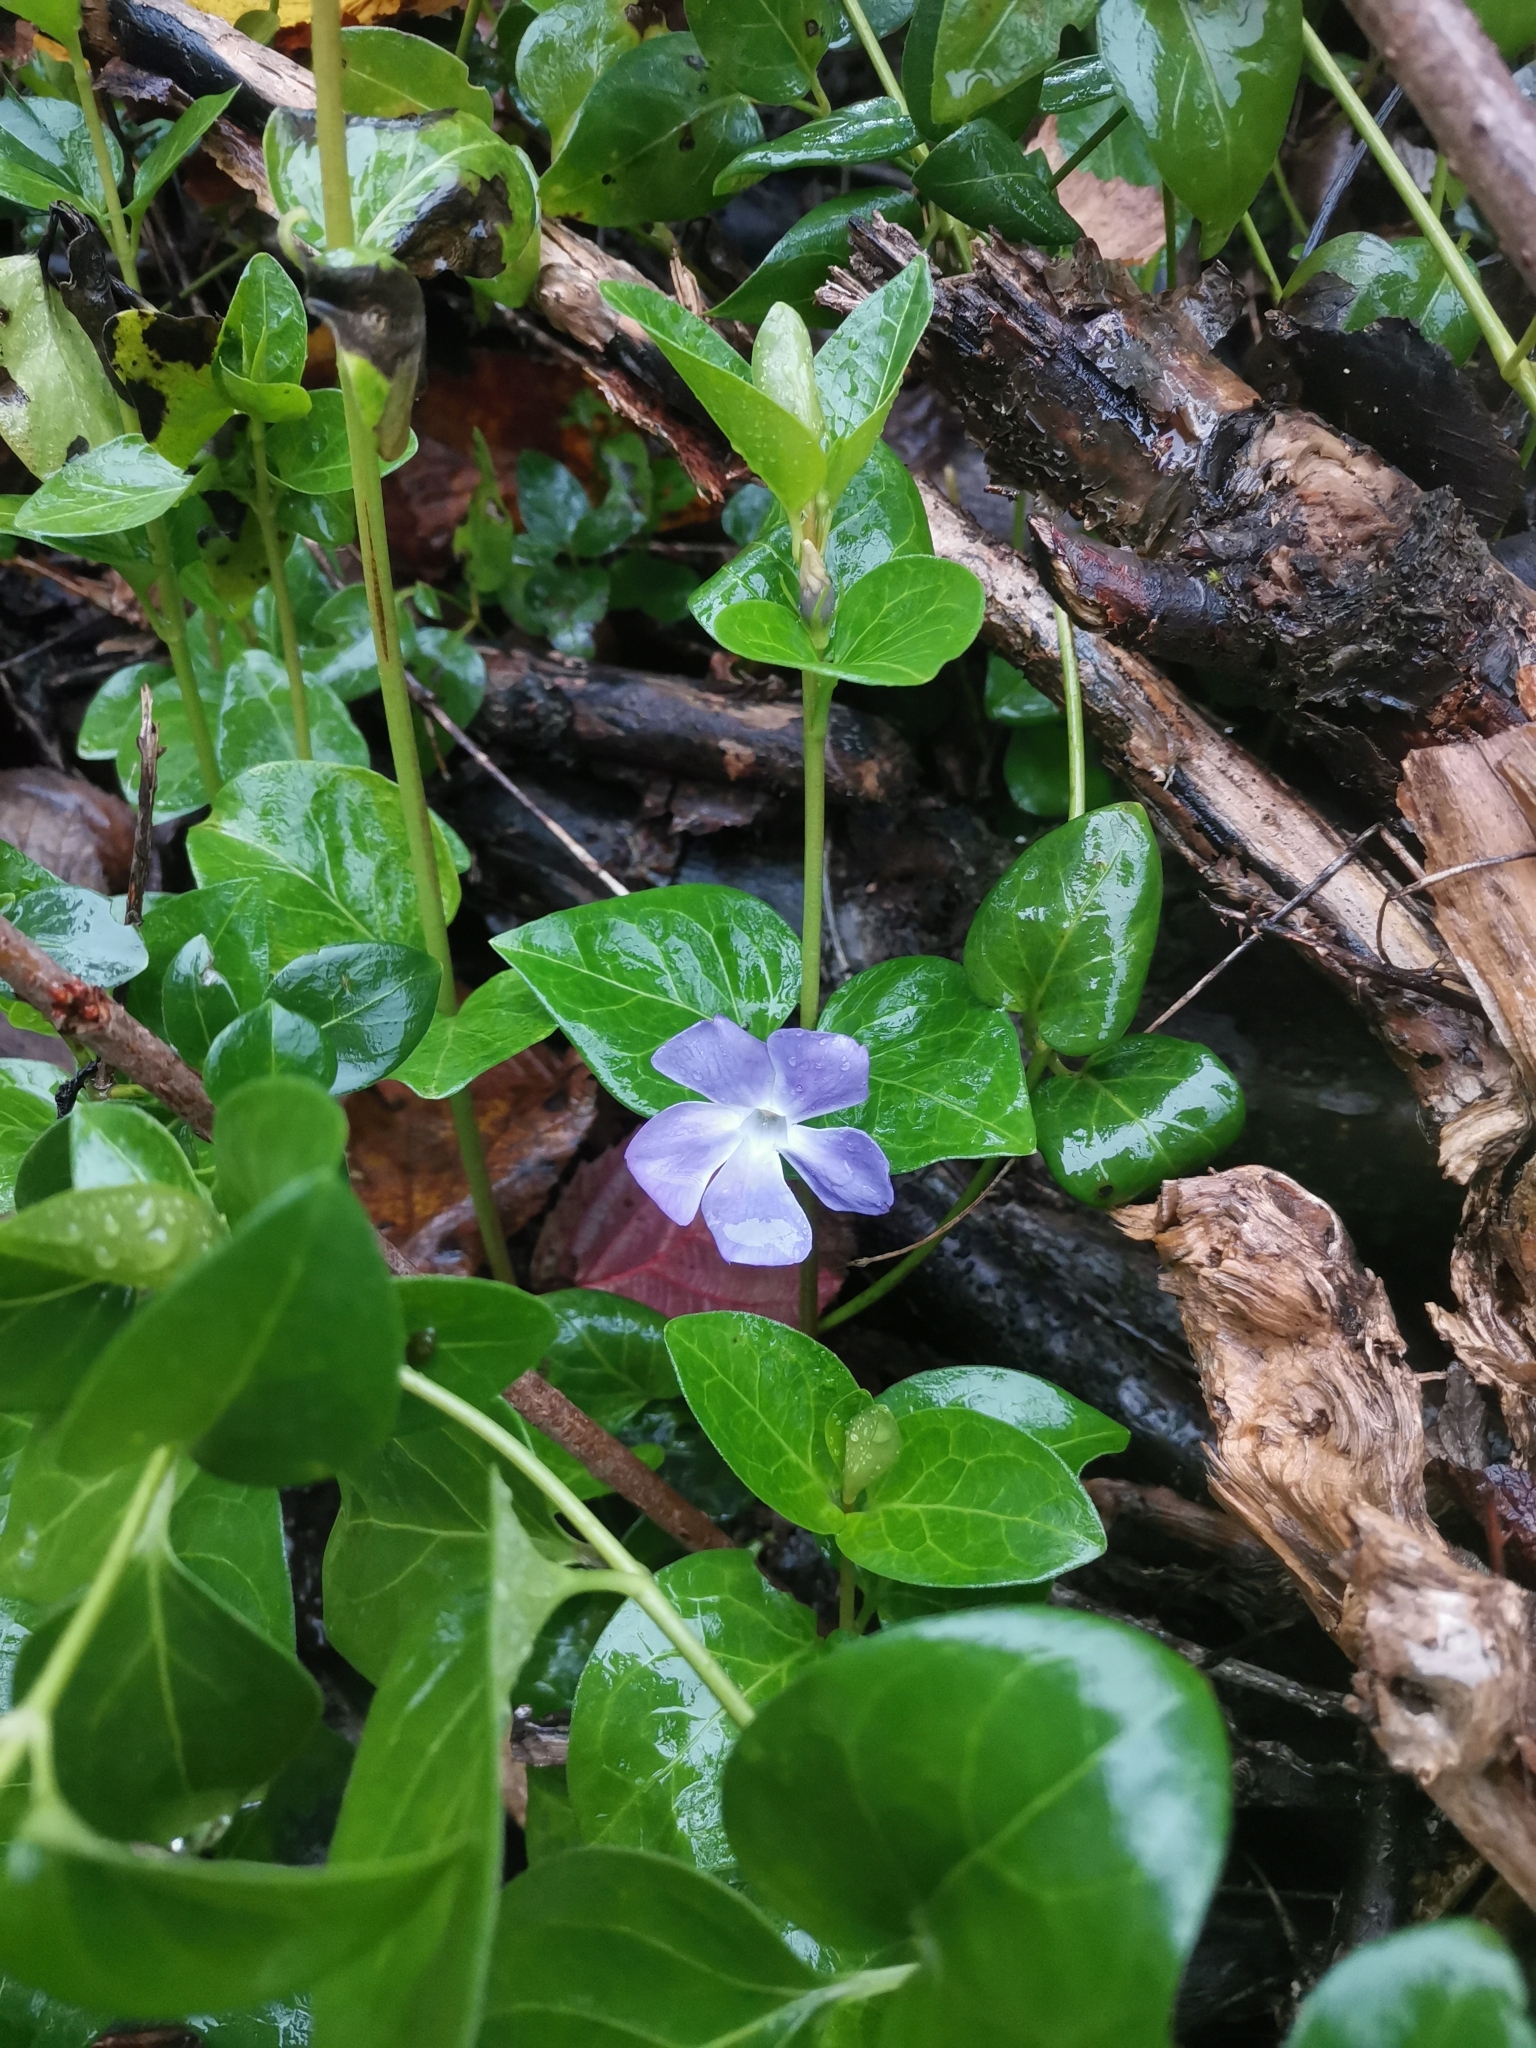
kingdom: Plantae
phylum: Tracheophyta
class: Magnoliopsida
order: Gentianales
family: Apocynaceae
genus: Vinca
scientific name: Vinca major
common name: Greater periwinkle
